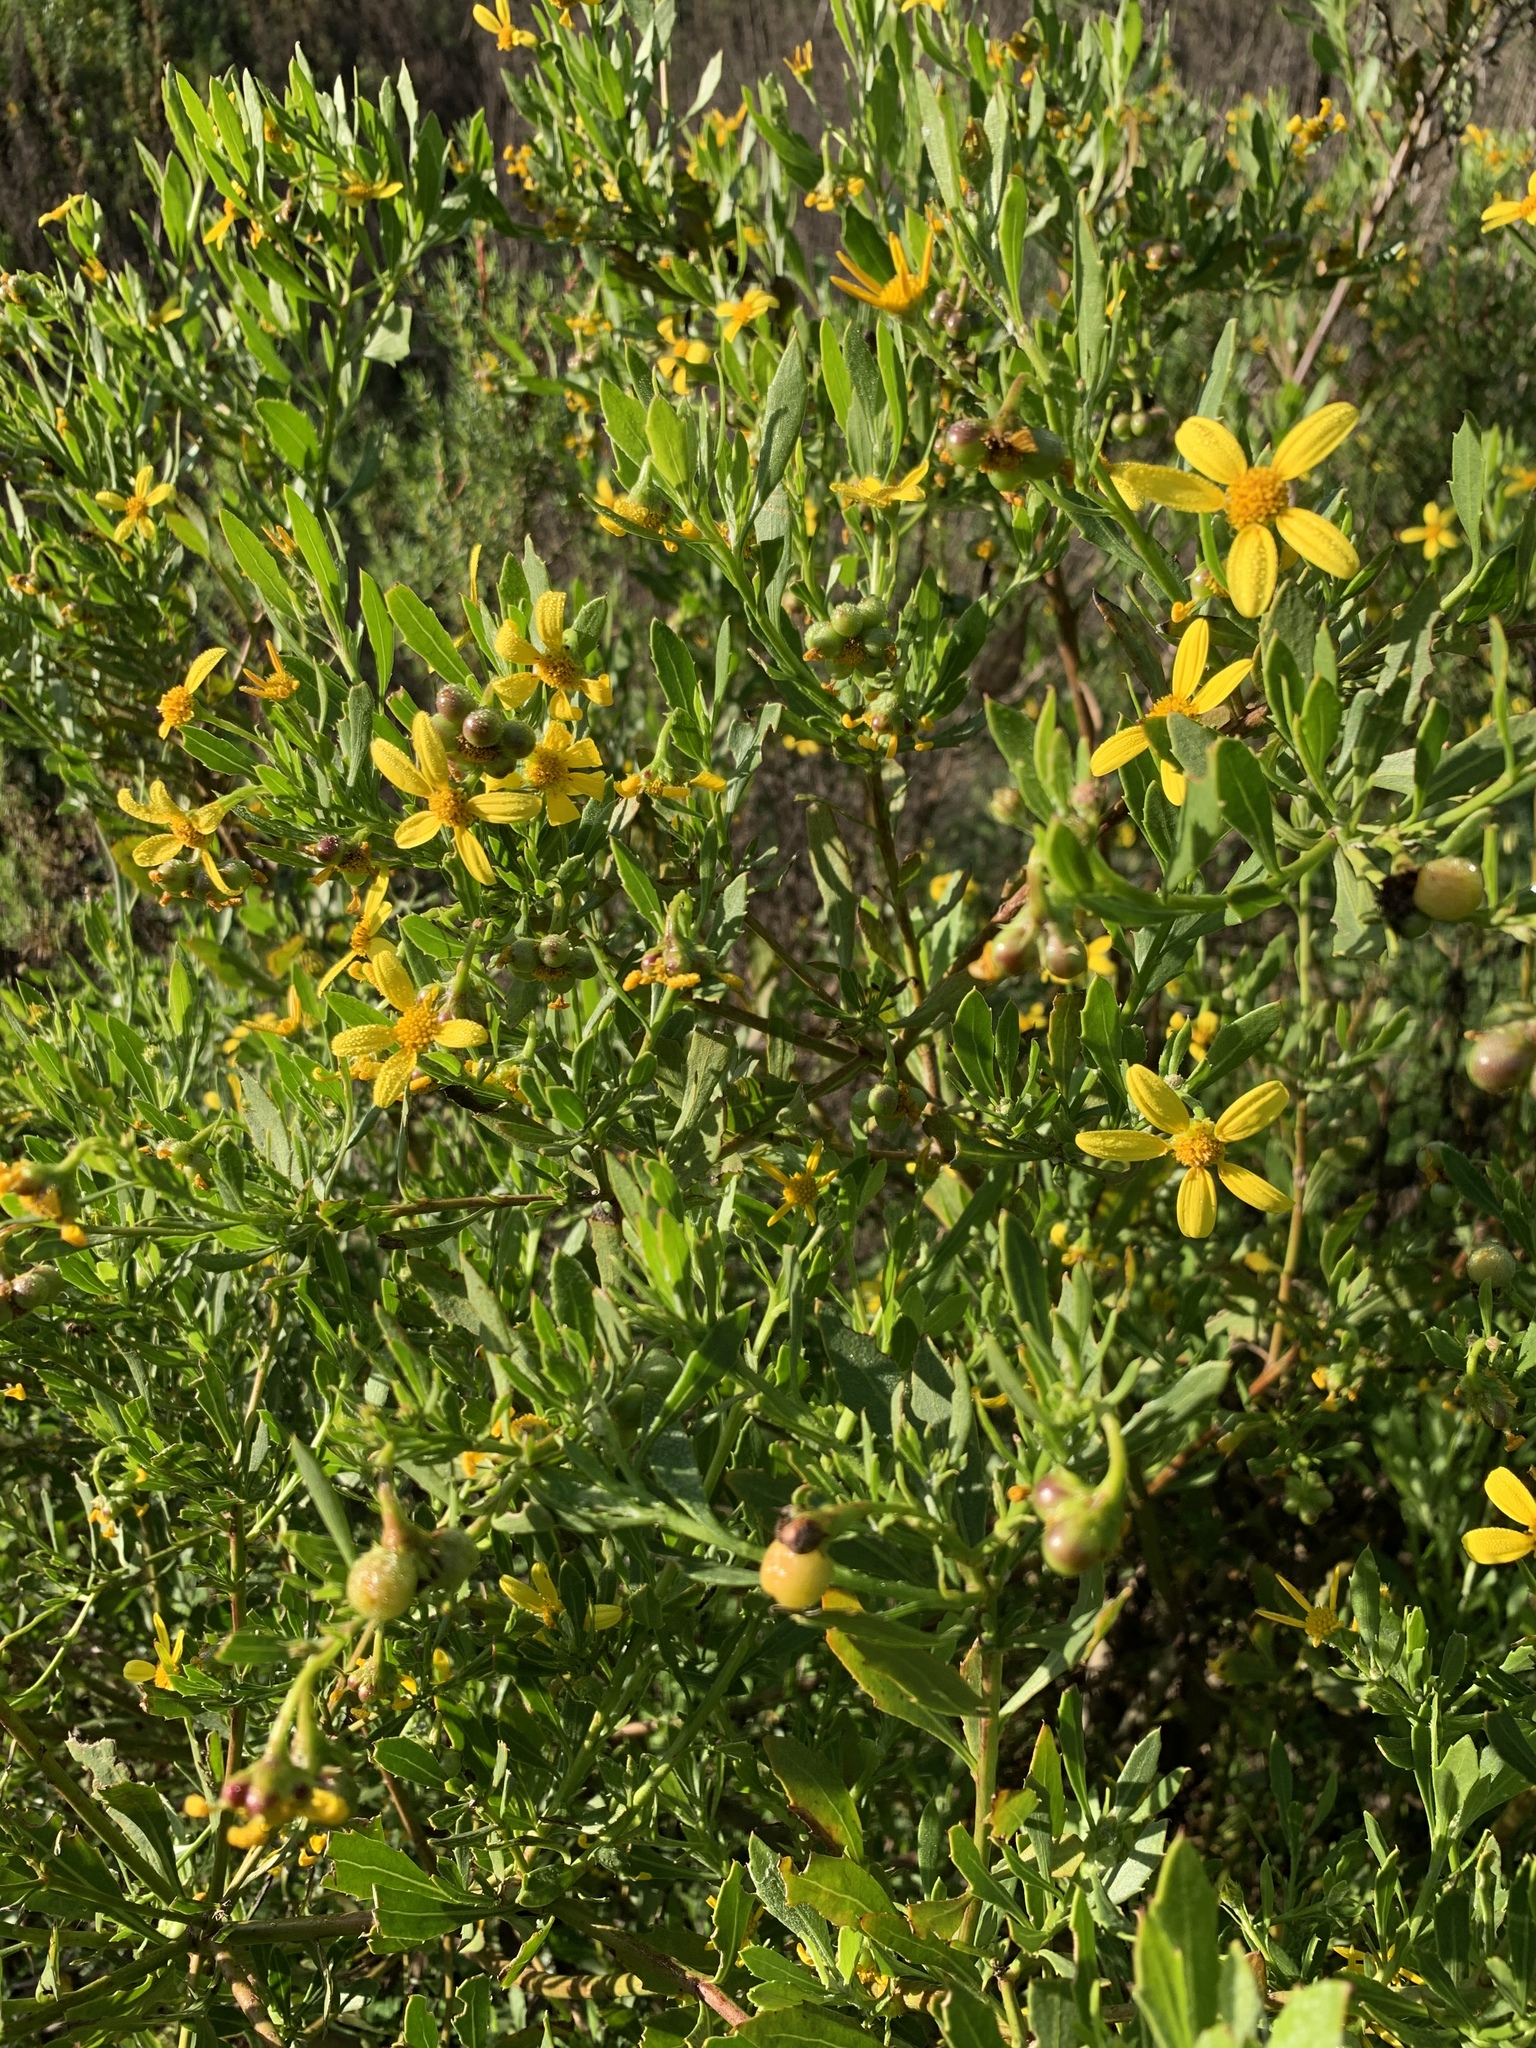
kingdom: Plantae
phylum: Tracheophyta
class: Magnoliopsida
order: Asterales
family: Asteraceae
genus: Osteospermum
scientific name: Osteospermum moniliferum
